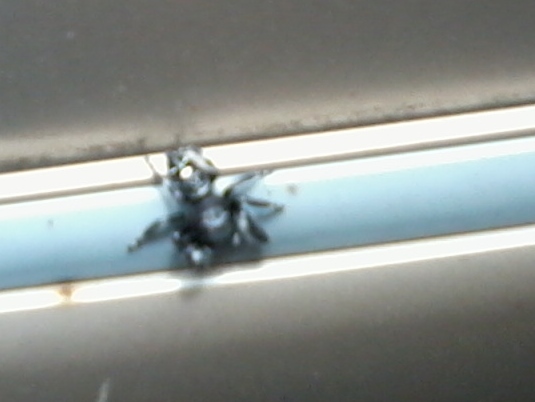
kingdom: Animalia
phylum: Arthropoda
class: Arachnida
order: Araneae
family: Salticidae
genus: Phidippus
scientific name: Phidippus audax
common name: Bold jumper
